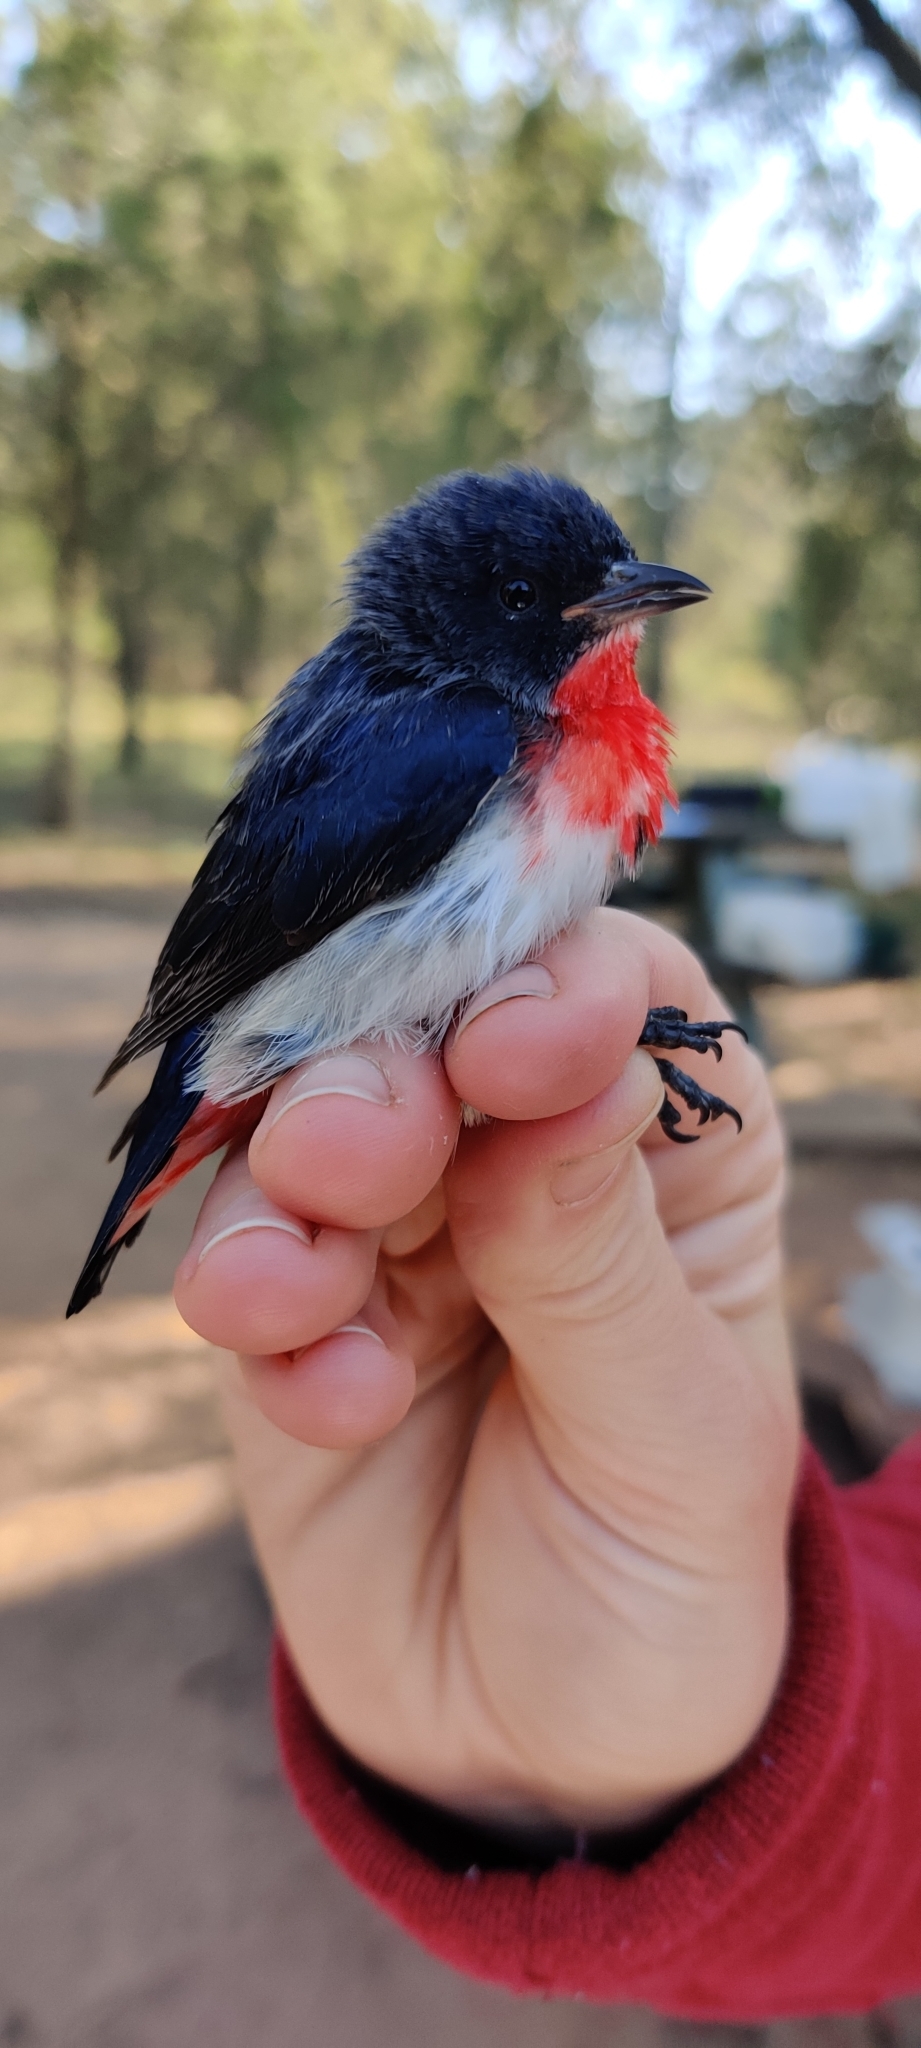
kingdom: Animalia
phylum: Chordata
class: Aves
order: Passeriformes
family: Dicaeidae
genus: Dicaeum
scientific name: Dicaeum hirundinaceum
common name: Mistletoebird
